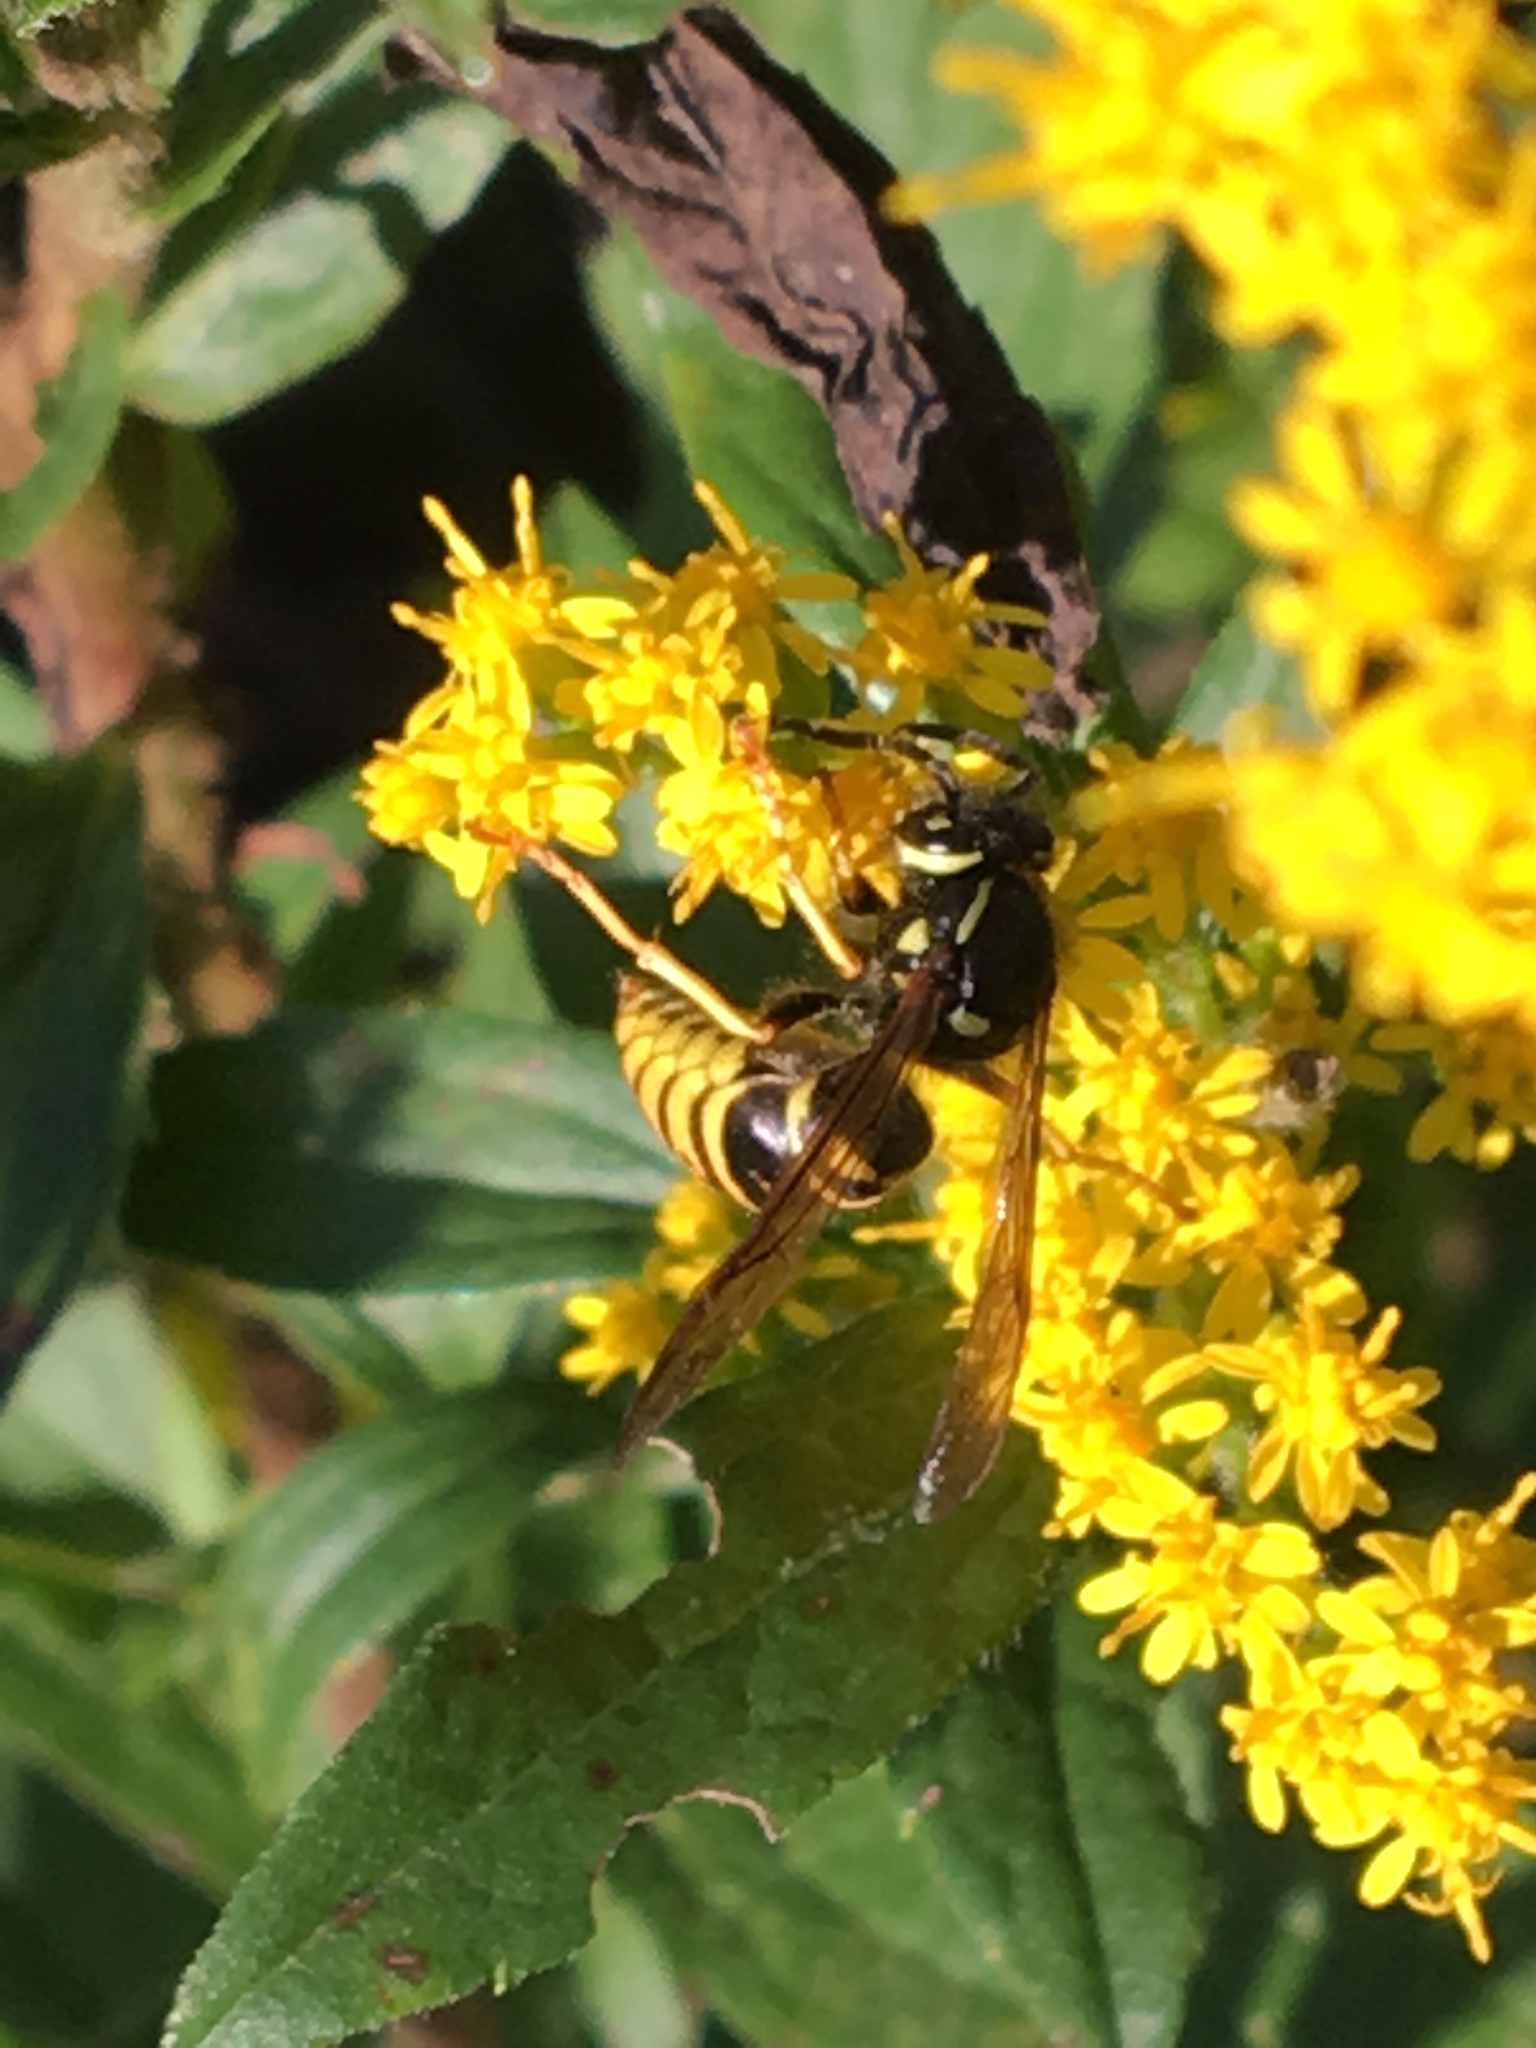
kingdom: Animalia
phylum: Arthropoda
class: Insecta
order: Hymenoptera
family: Vespidae
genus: Vespula
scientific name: Vespula vidua
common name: Widow yellowjacket
